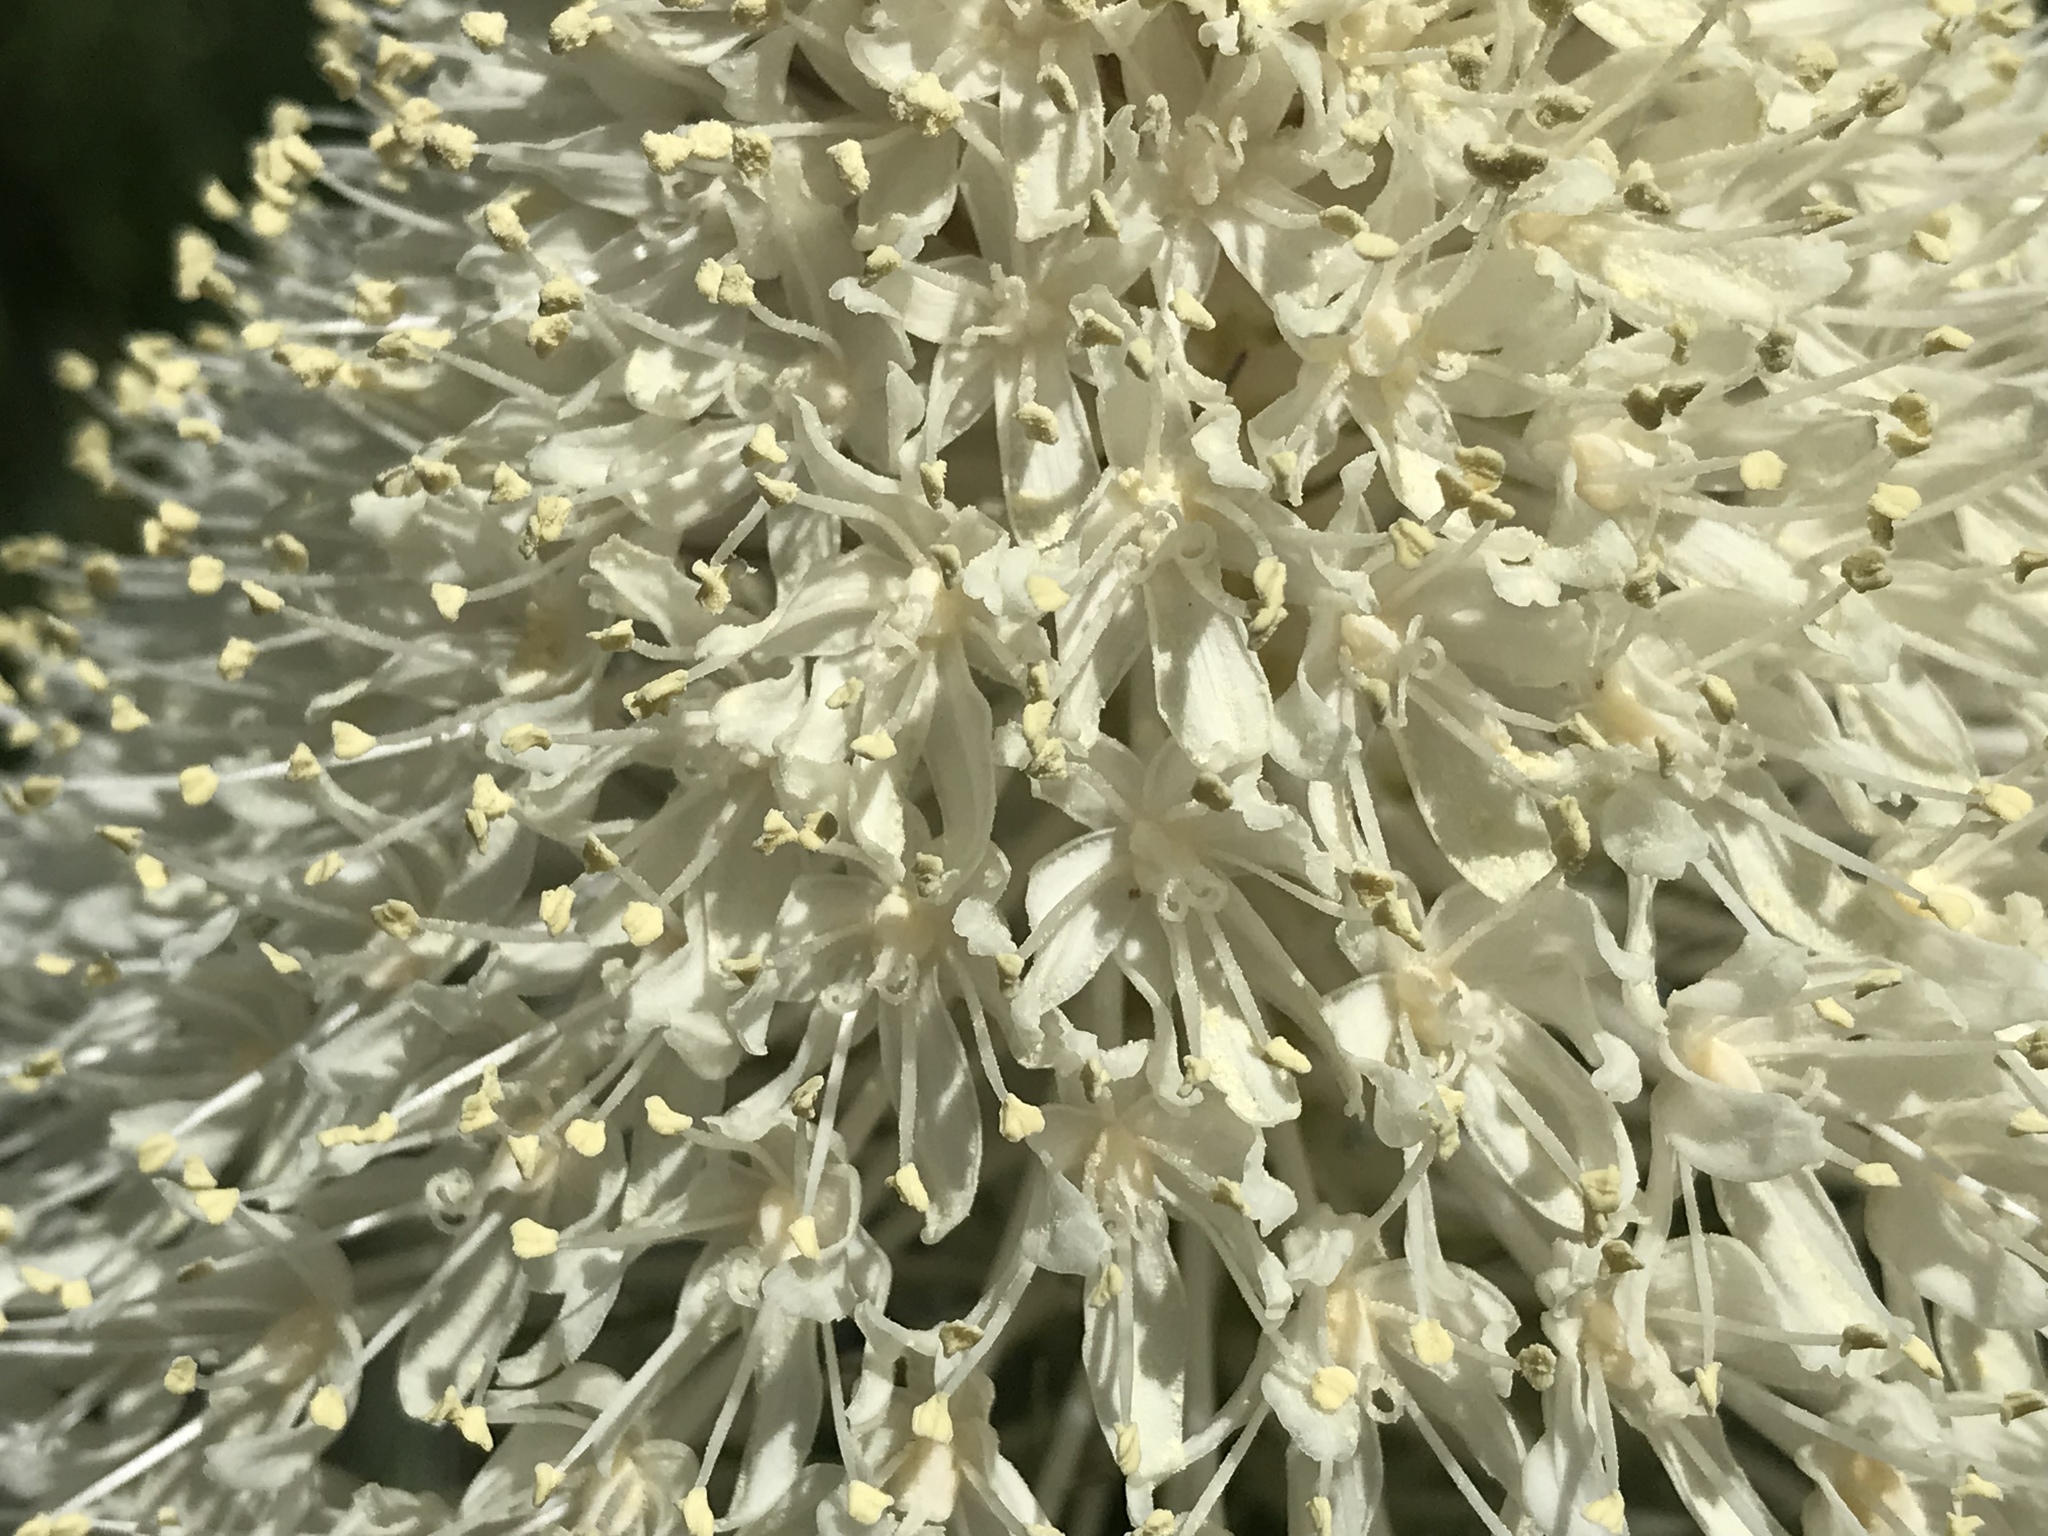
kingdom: Plantae
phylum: Tracheophyta
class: Liliopsida
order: Liliales
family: Melanthiaceae
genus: Xerophyllum
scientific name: Xerophyllum tenax
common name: Bear-grass
